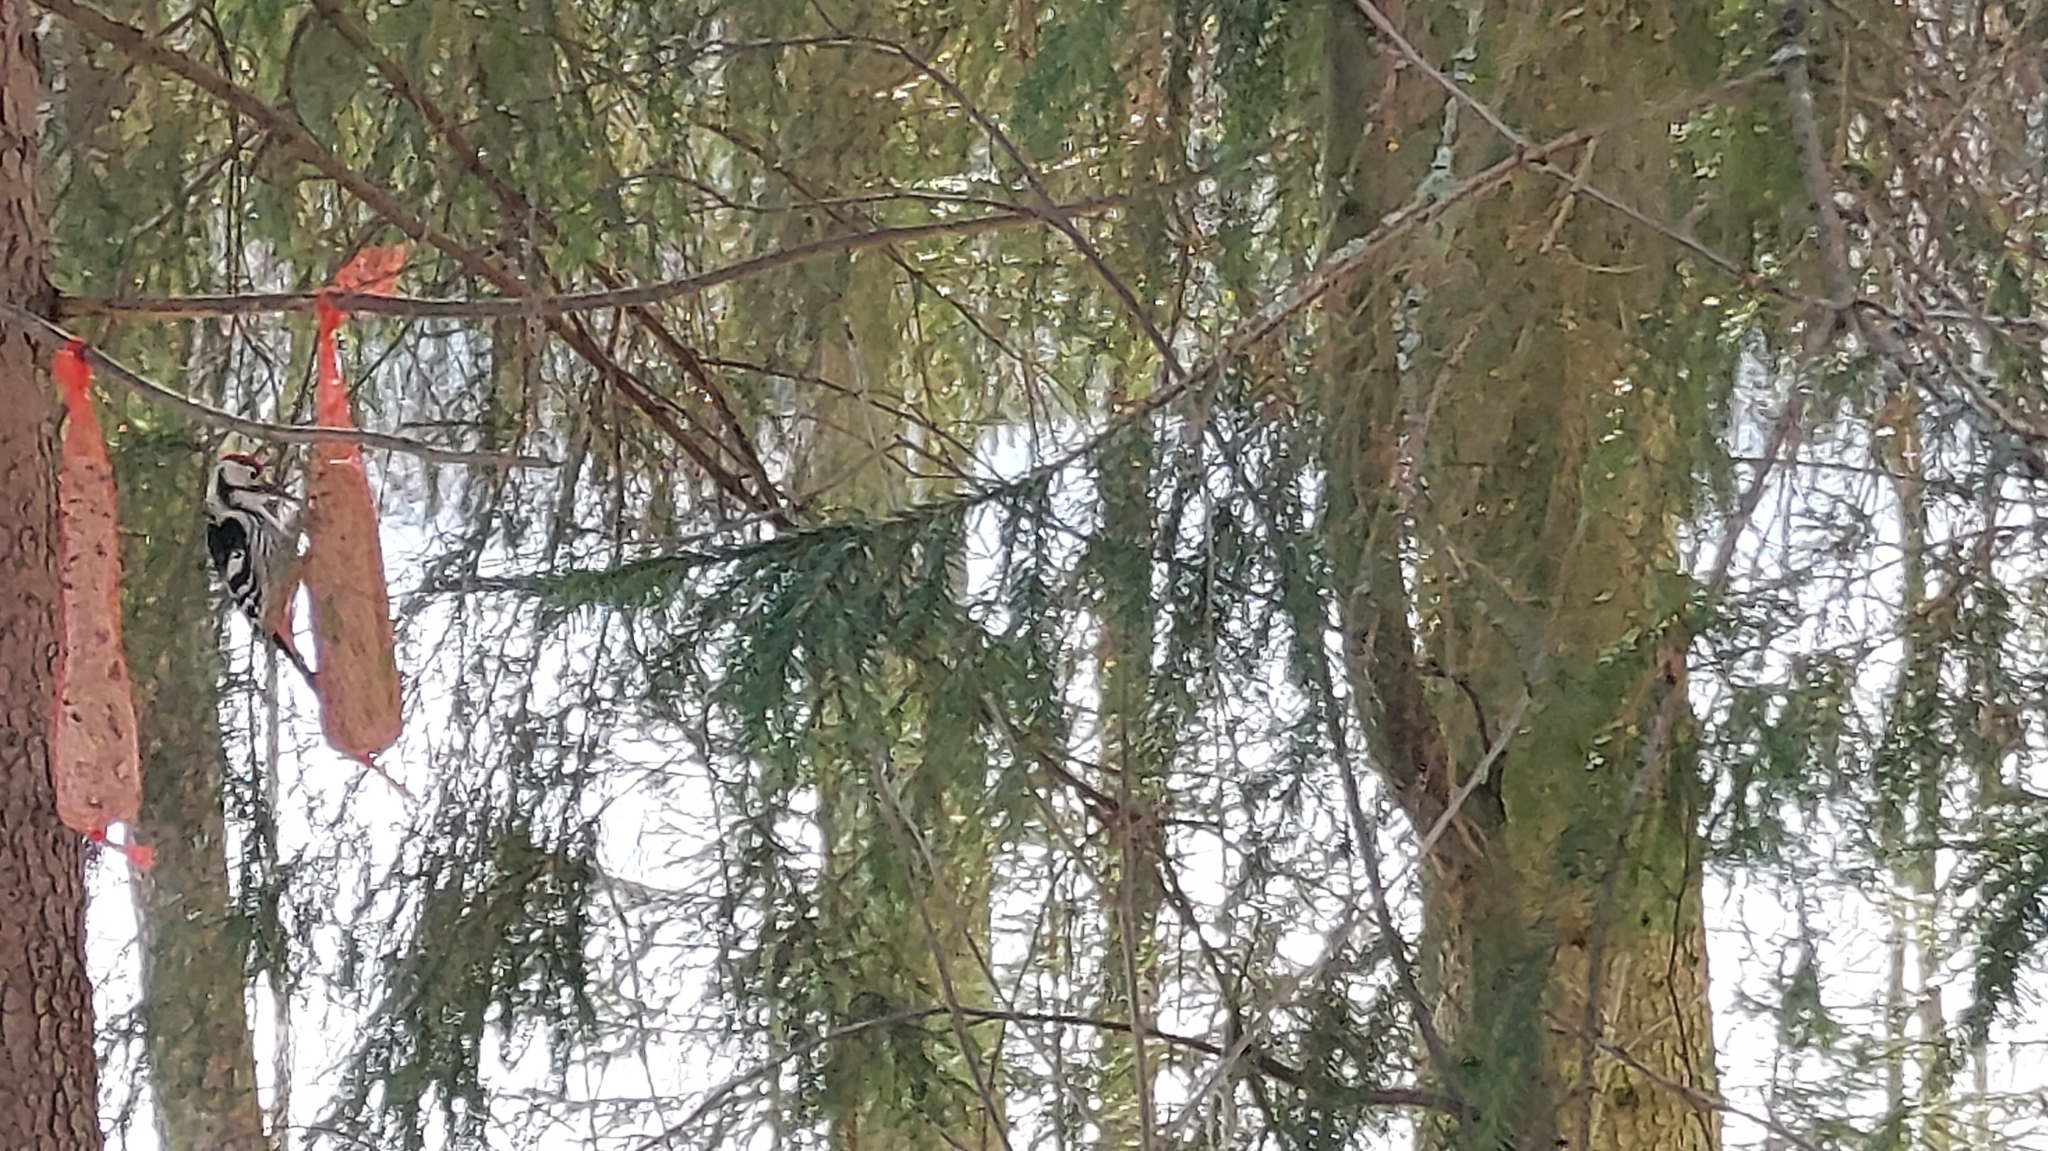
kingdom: Animalia
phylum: Chordata
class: Aves
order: Piciformes
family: Picidae
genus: Dendrocopos
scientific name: Dendrocopos leucotos
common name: White-backed woodpecker
